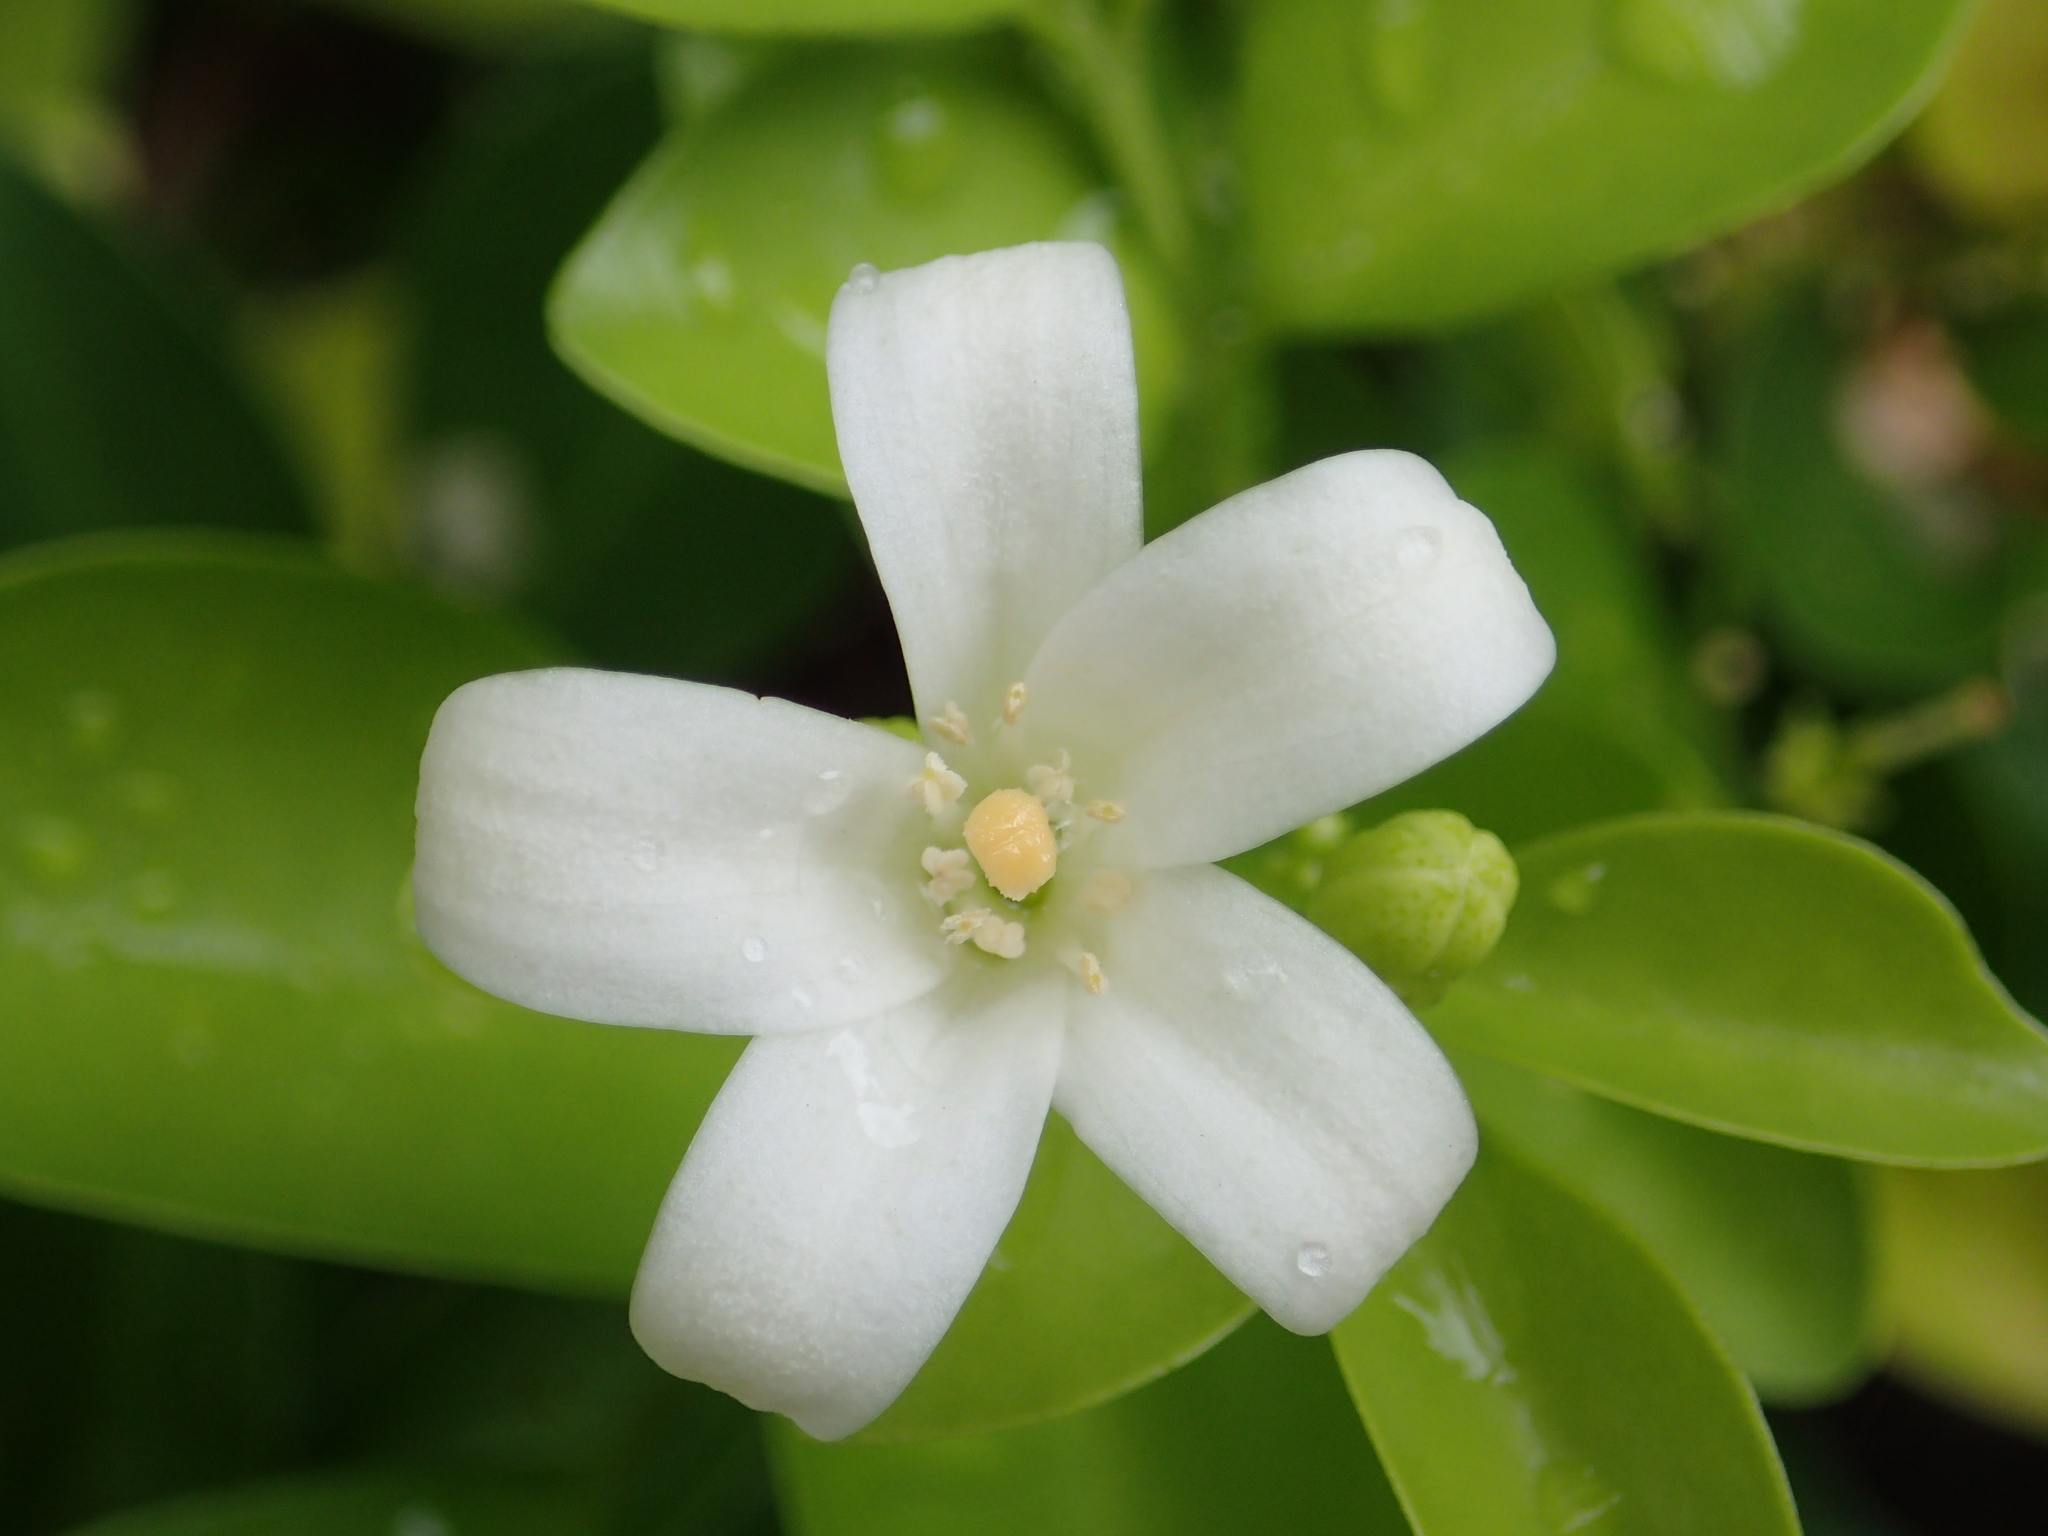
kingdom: Plantae
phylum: Tracheophyta
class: Magnoliopsida
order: Sapindales
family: Rutaceae
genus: Murraya
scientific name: Murraya paniculata
